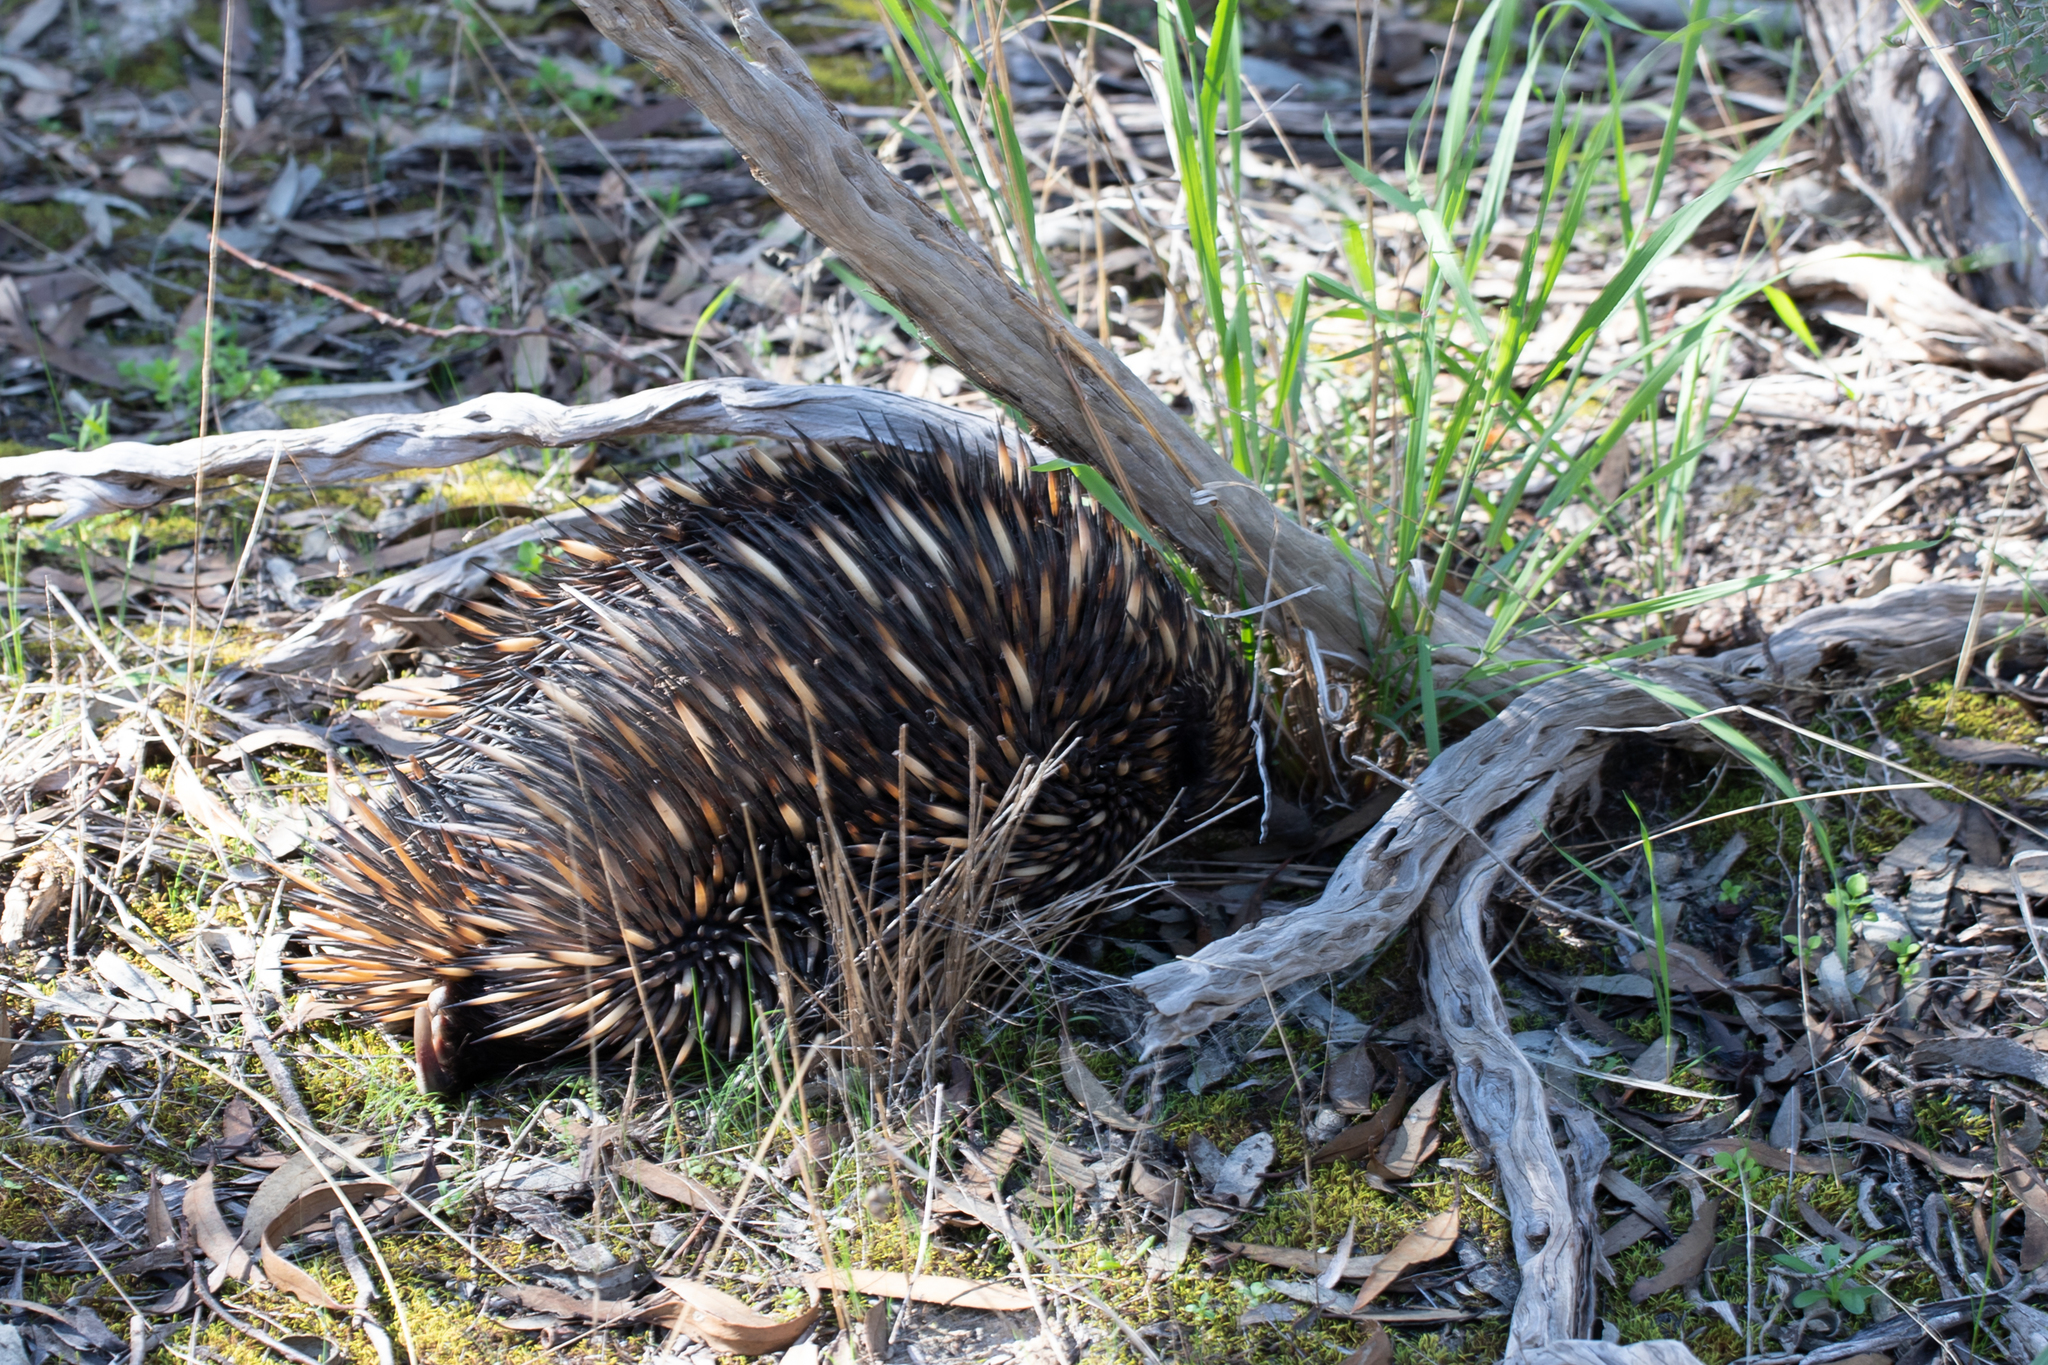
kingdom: Animalia
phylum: Chordata
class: Mammalia
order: Monotremata
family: Tachyglossidae
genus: Tachyglossus
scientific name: Tachyglossus aculeatus
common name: Short-beaked echidna
